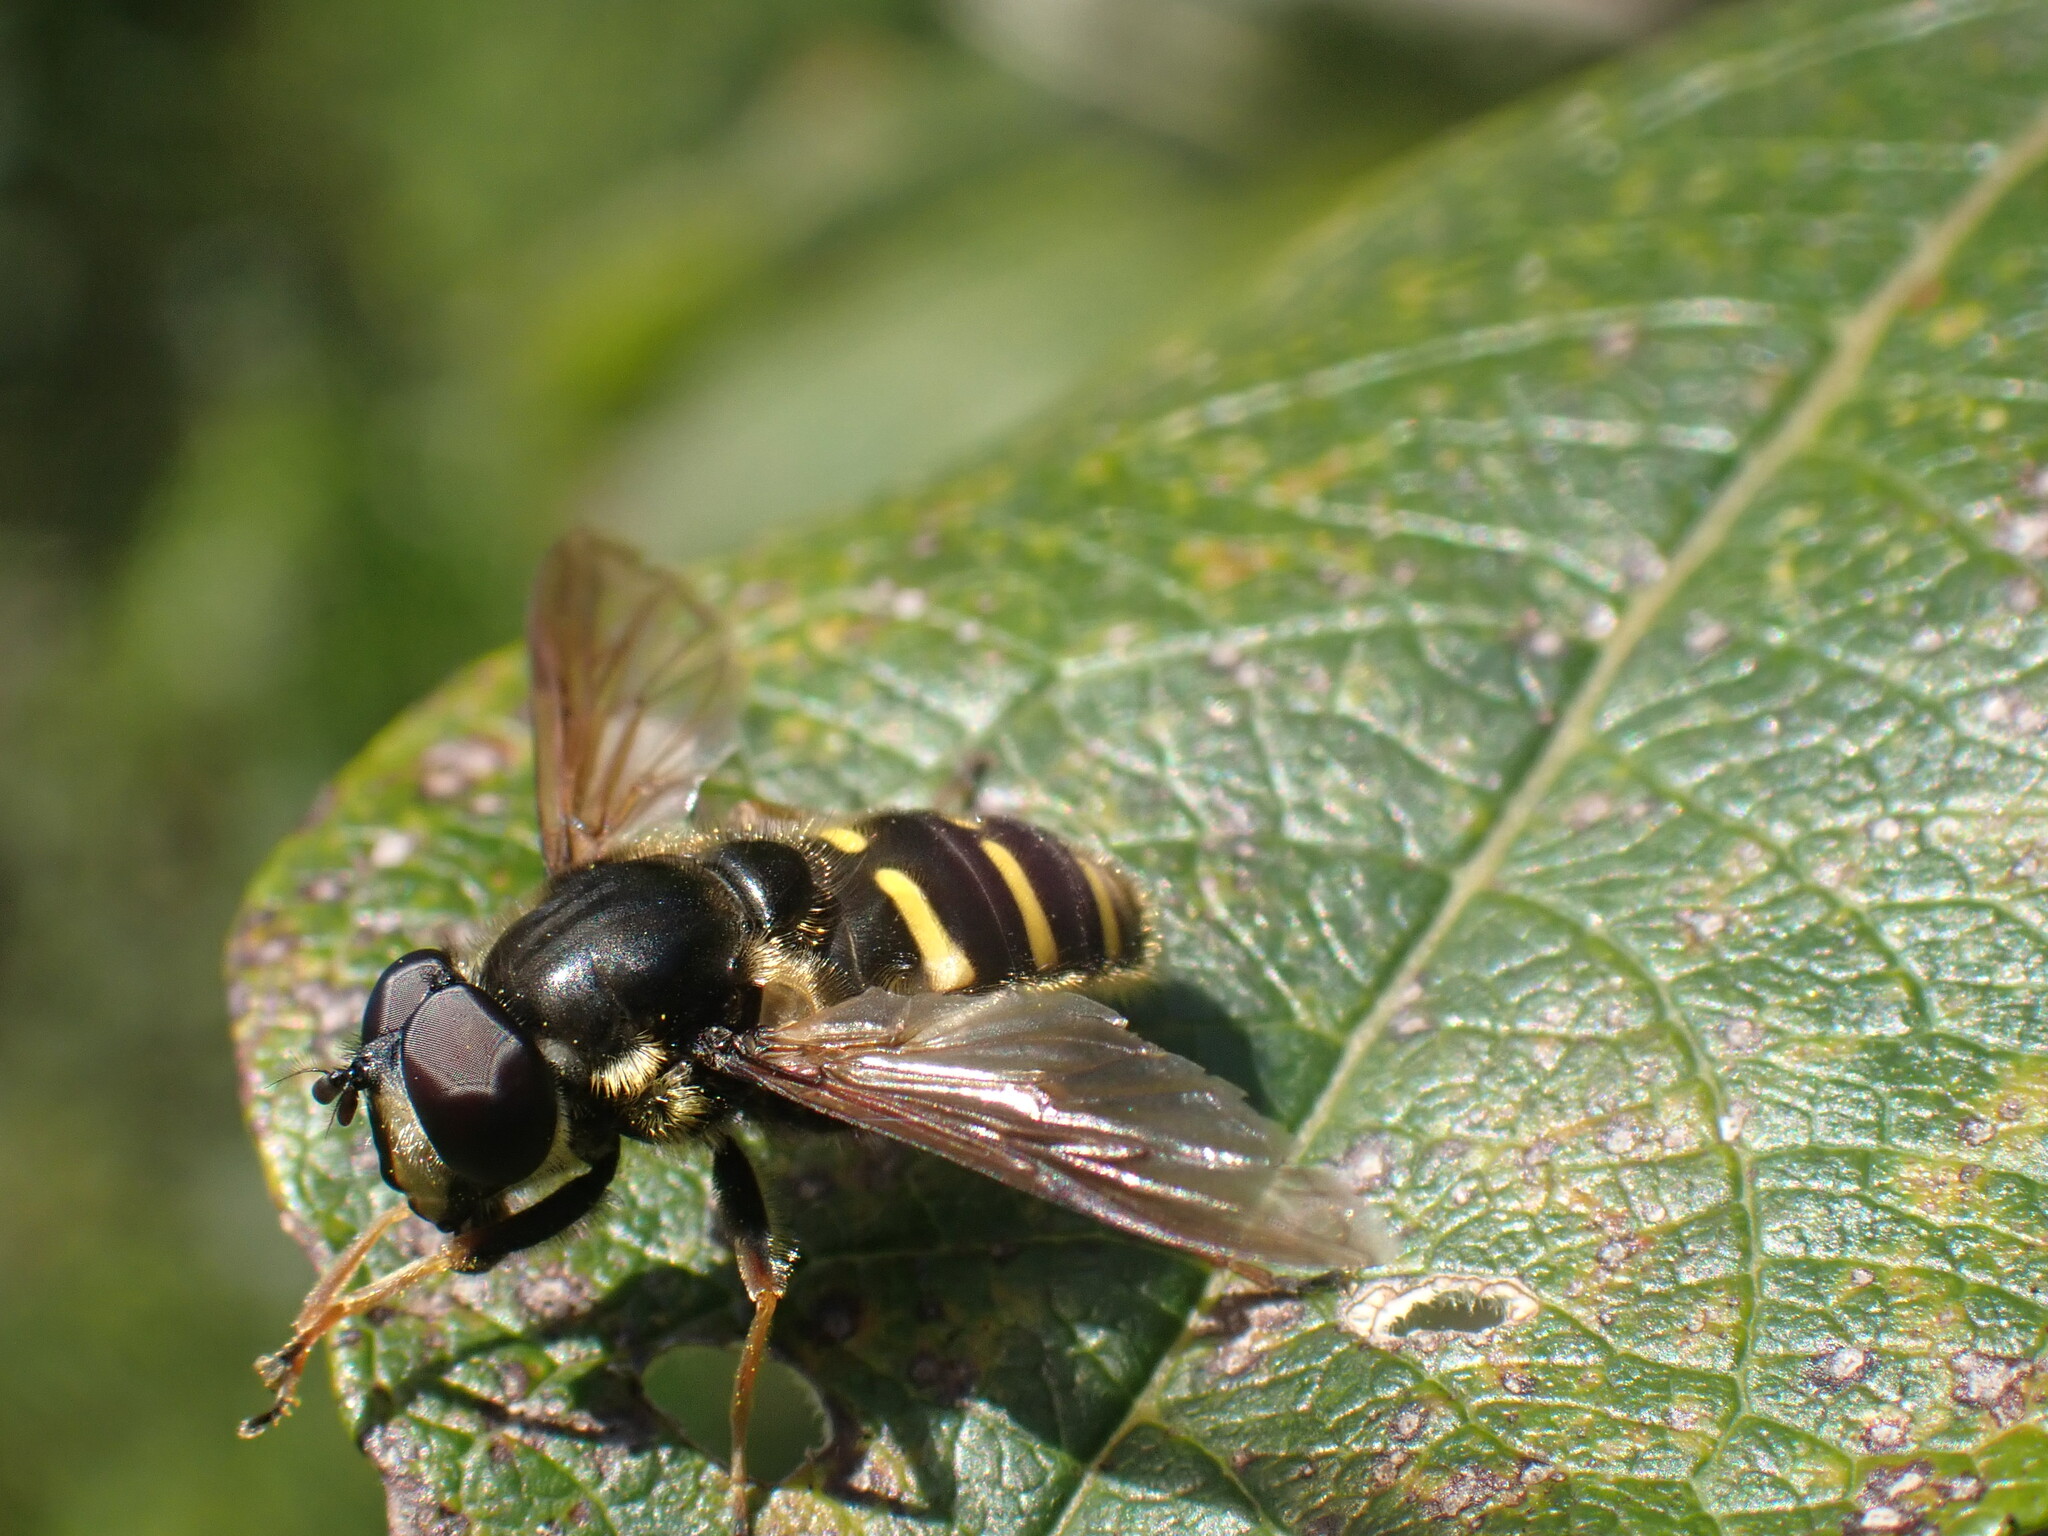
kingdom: Animalia
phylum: Arthropoda
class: Insecta
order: Diptera
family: Syrphidae
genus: Sericomyia
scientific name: Sericomyia chalcopyga
